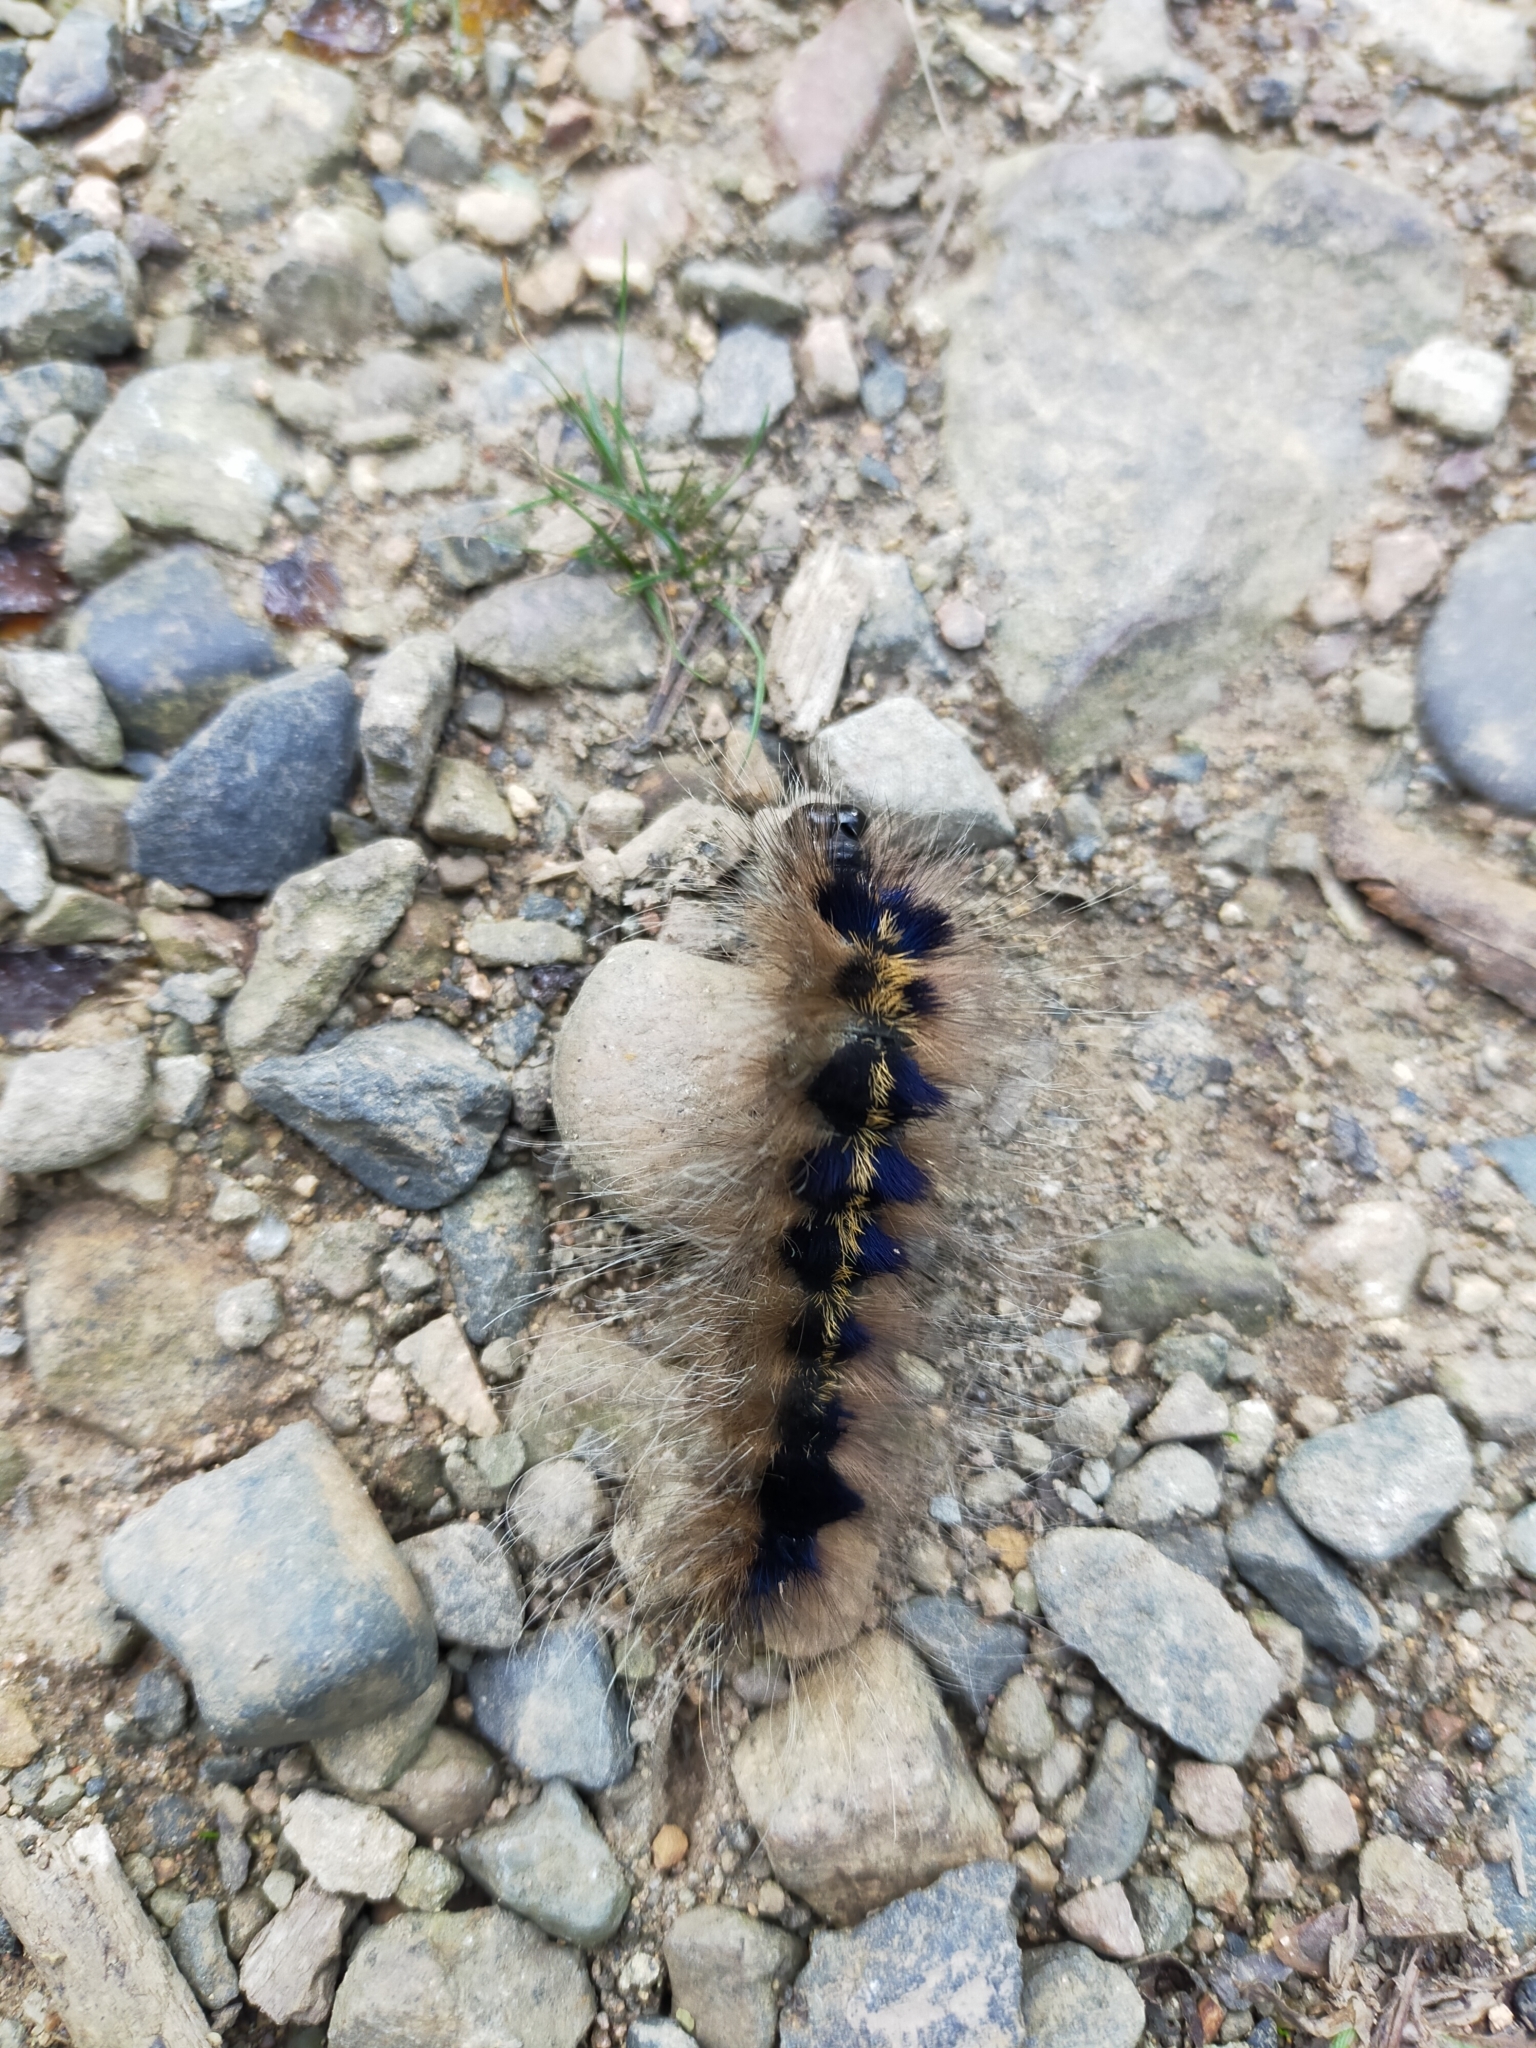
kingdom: Animalia
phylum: Arthropoda
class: Insecta
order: Lepidoptera
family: Noctuidae
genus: Acronicta
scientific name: Acronicta major
